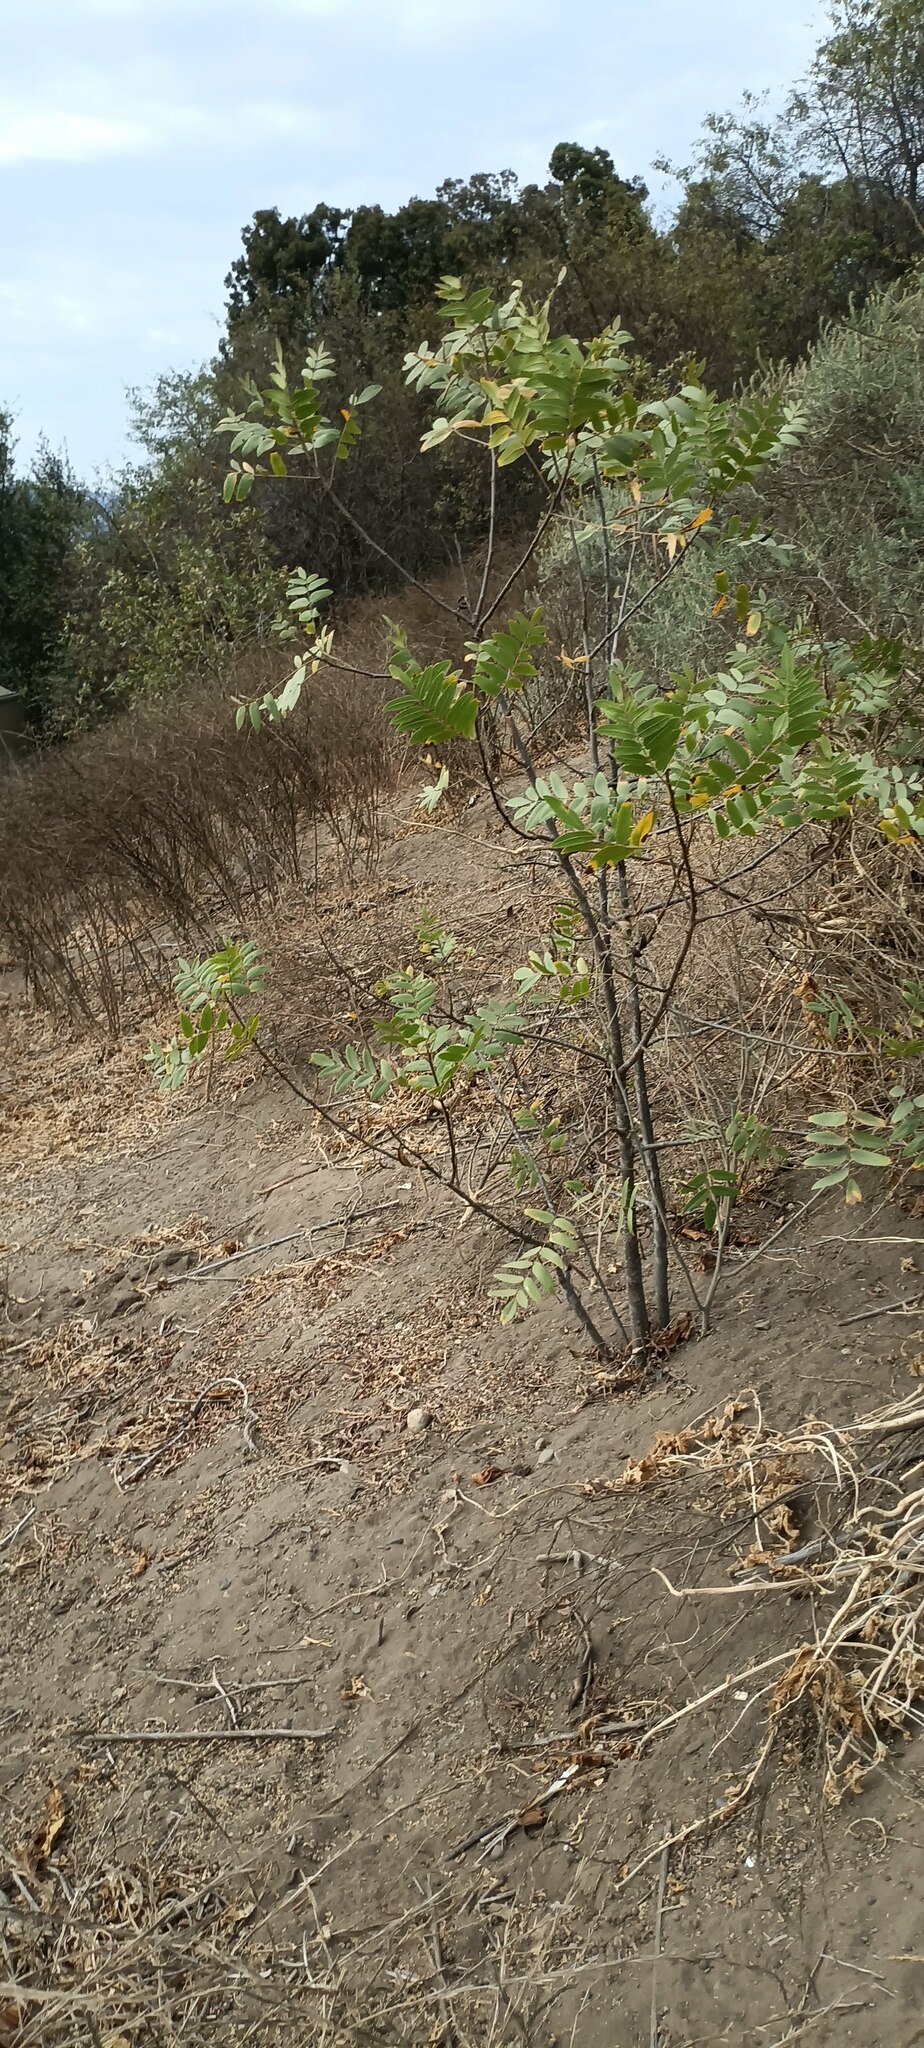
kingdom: Plantae
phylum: Tracheophyta
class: Magnoliopsida
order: Fagales
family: Juglandaceae
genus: Juglans
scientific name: Juglans californica
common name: Southern california black walnut
